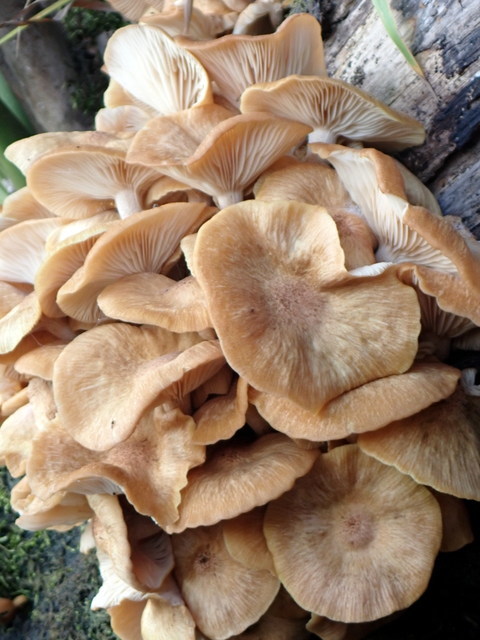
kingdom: Fungi
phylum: Basidiomycota
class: Agaricomycetes
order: Agaricales
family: Physalacriaceae
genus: Desarmillaria
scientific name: Desarmillaria caespitosa
